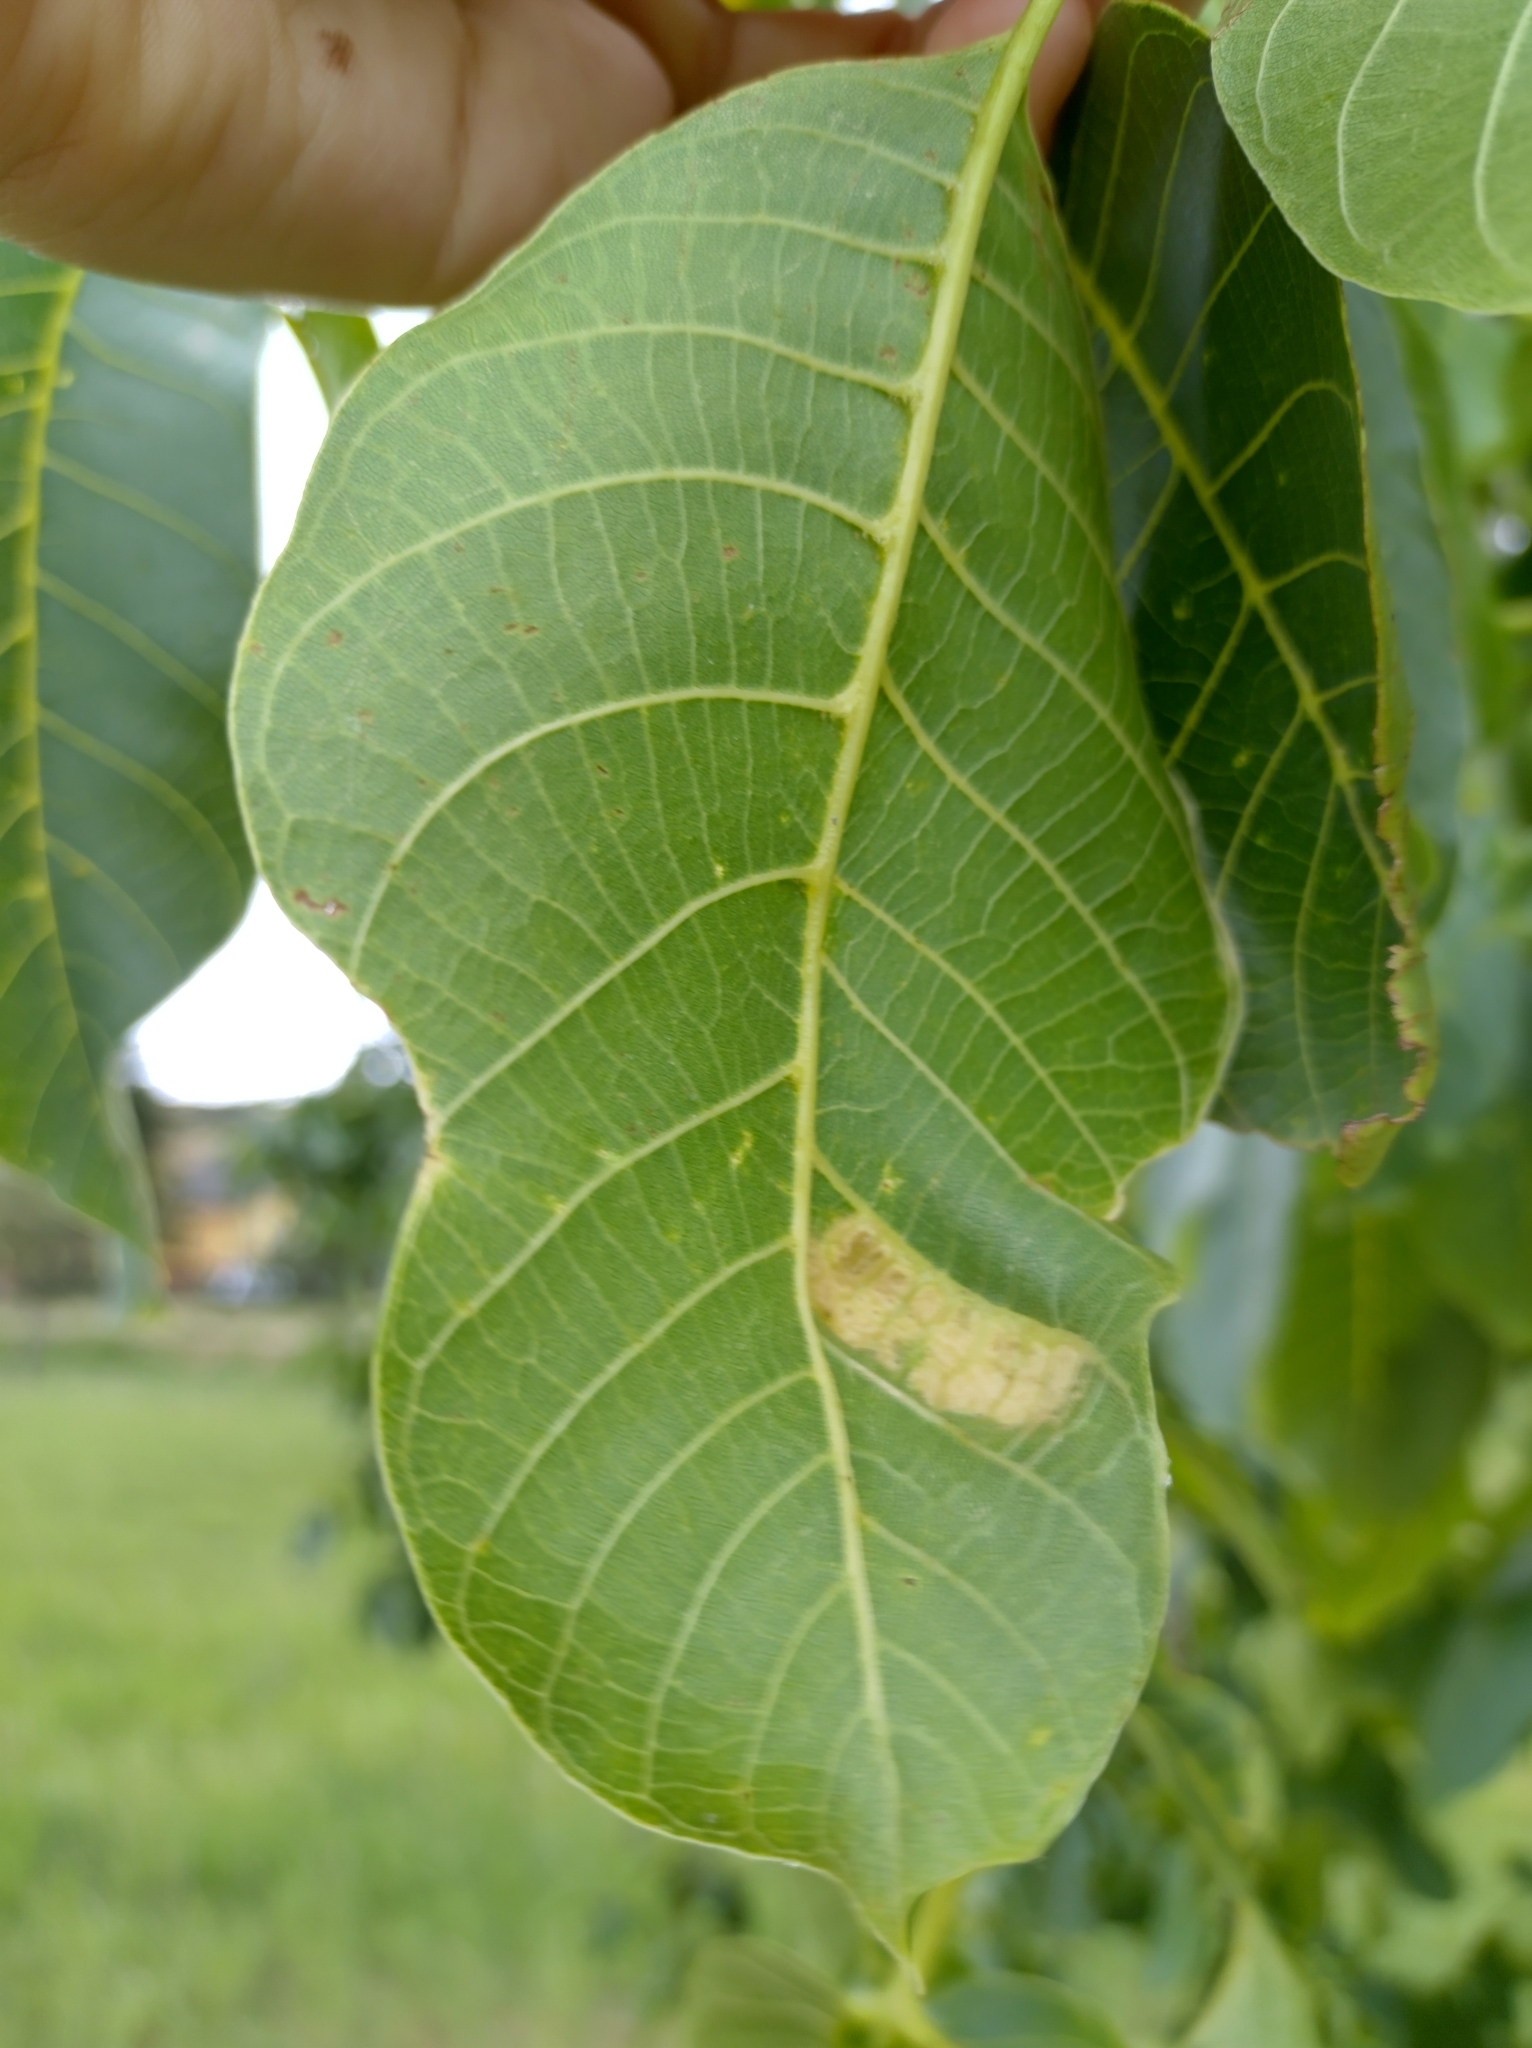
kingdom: Animalia
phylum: Arthropoda
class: Arachnida
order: Trombidiformes
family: Eriophyidae
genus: Aceria
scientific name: Aceria erinea
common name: Persian walnut erineum mite
